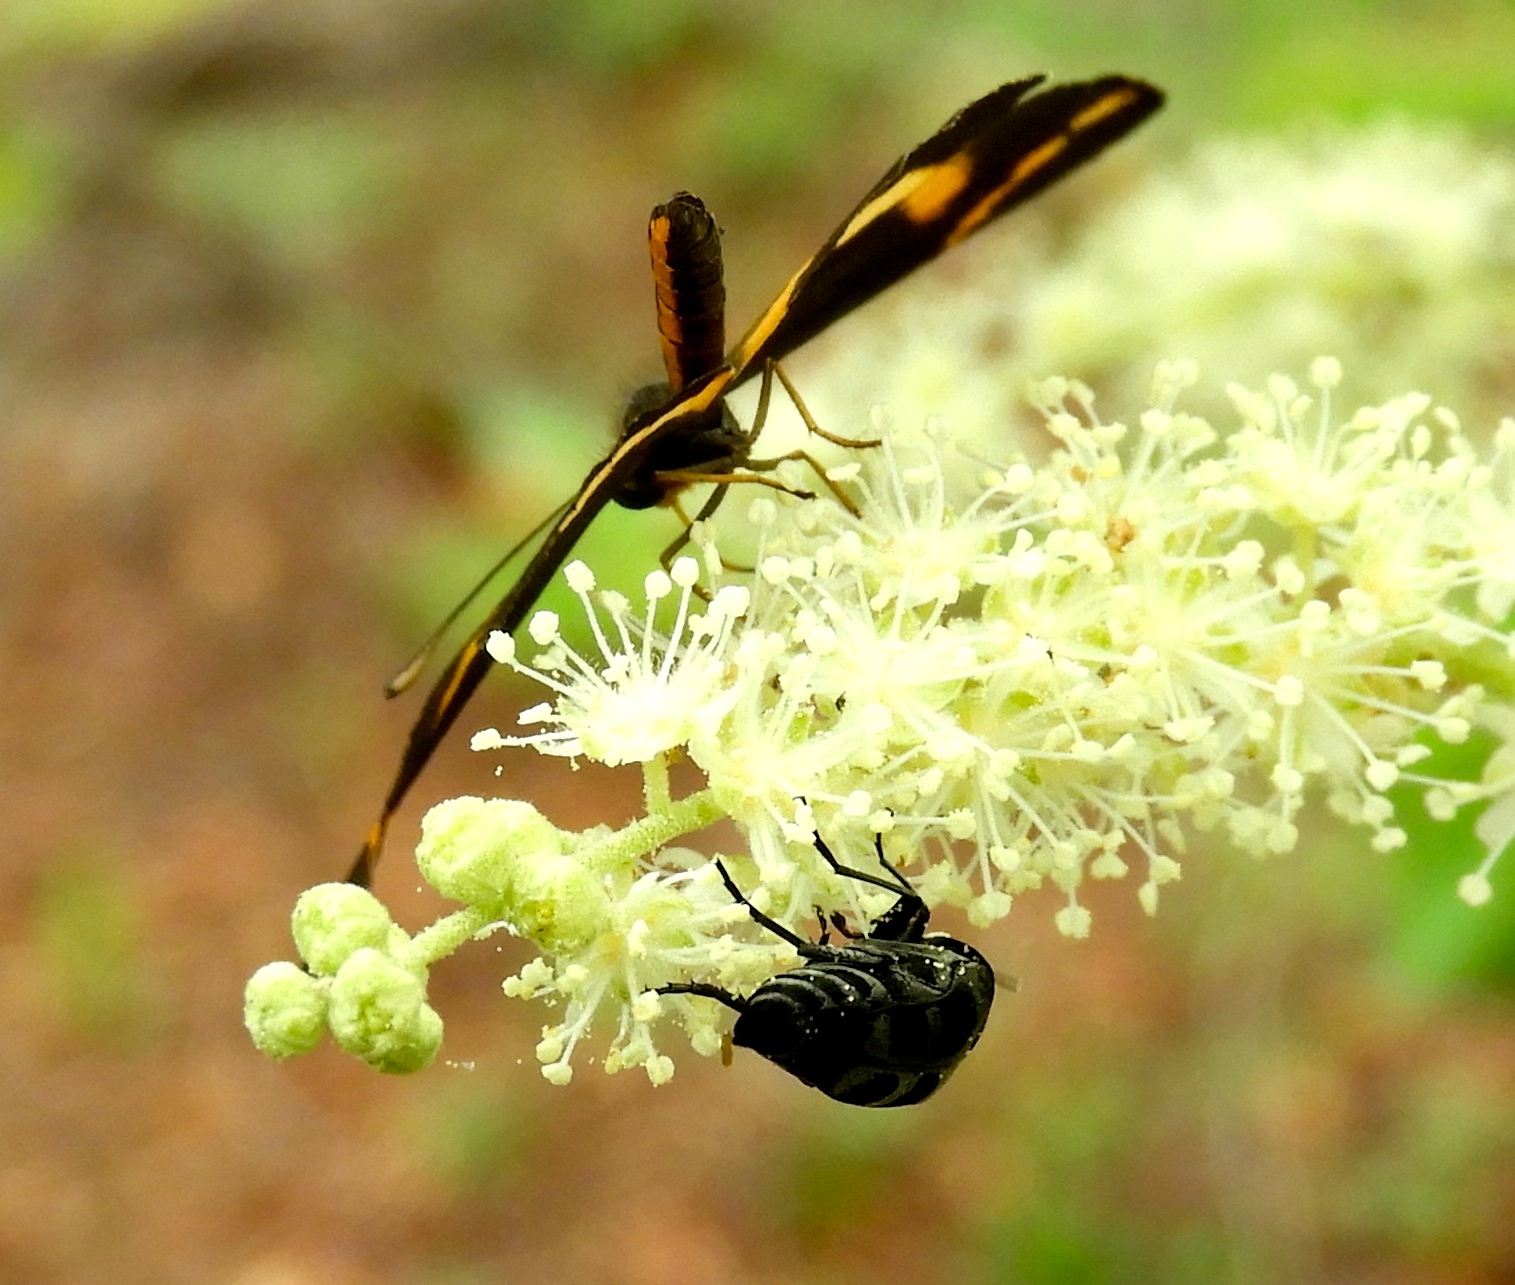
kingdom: Animalia
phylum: Arthropoda
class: Insecta
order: Lepidoptera
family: Nymphalidae
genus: Microtia
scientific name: Microtia elva
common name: Elf
